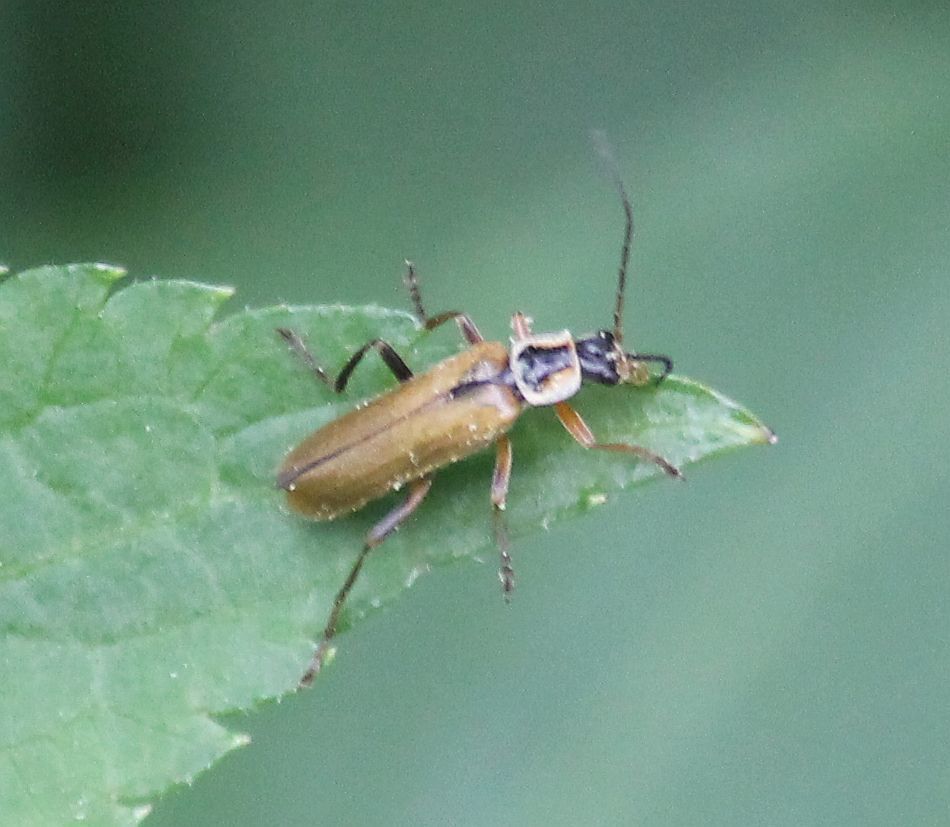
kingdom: Animalia
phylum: Arthropoda
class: Insecta
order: Coleoptera
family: Cantharidae
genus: Cantharis
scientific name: Cantharis decipiens
